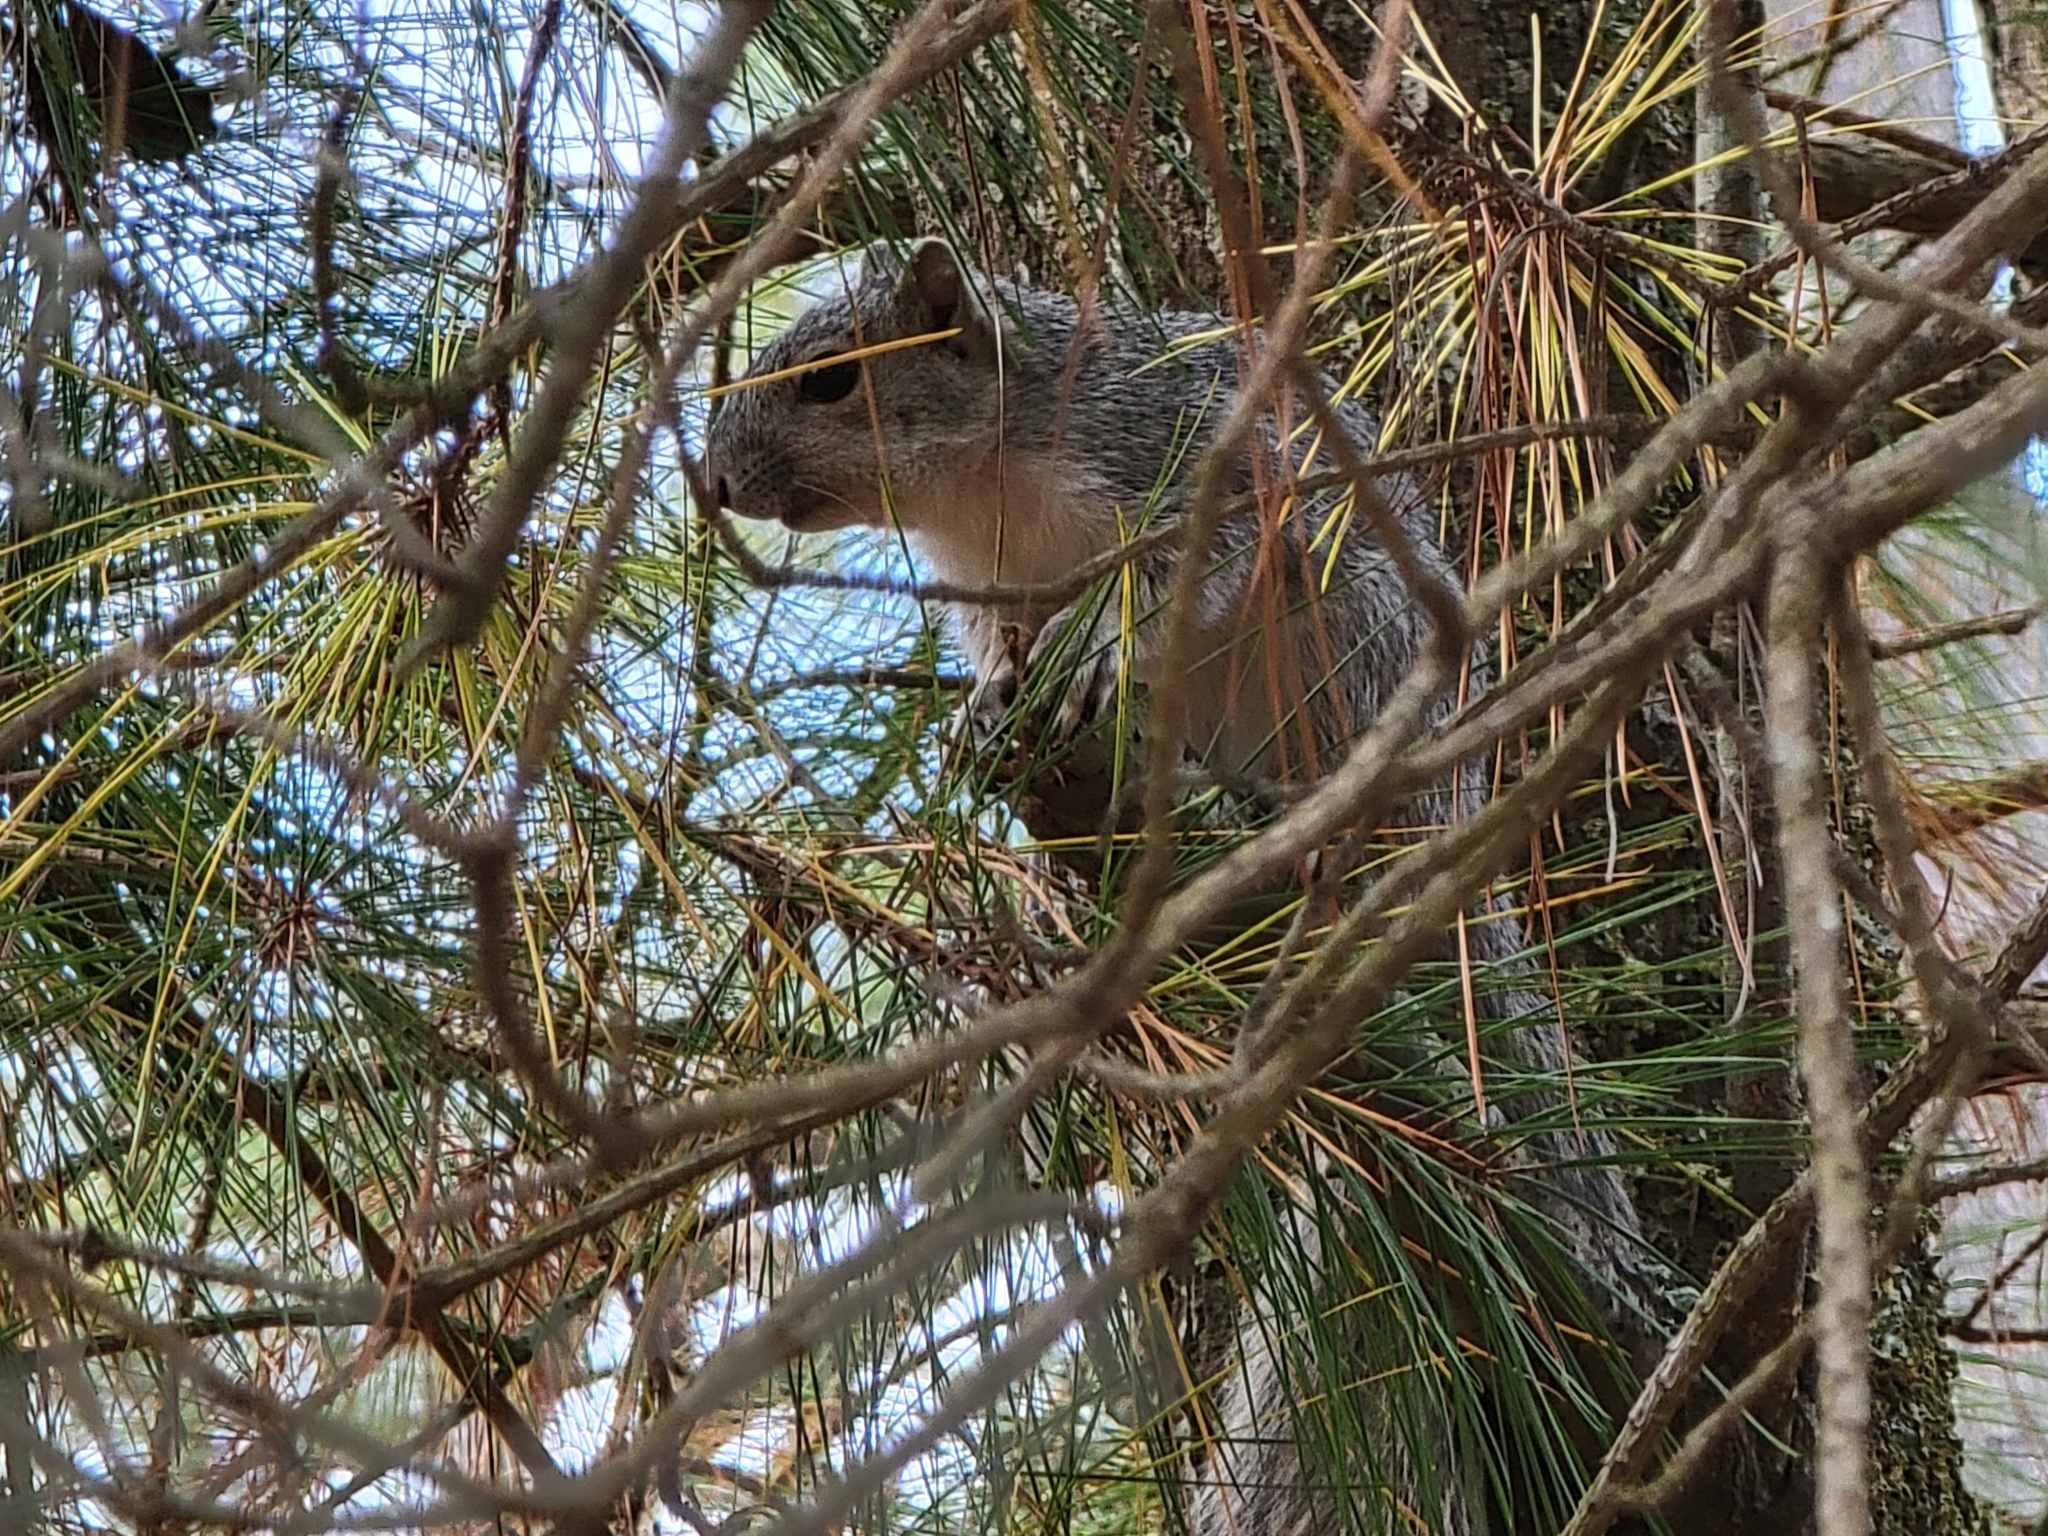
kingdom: Animalia
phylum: Chordata
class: Mammalia
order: Rodentia
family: Sciuridae
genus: Sciurus
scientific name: Sciurus niger
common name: Fox squirrel
